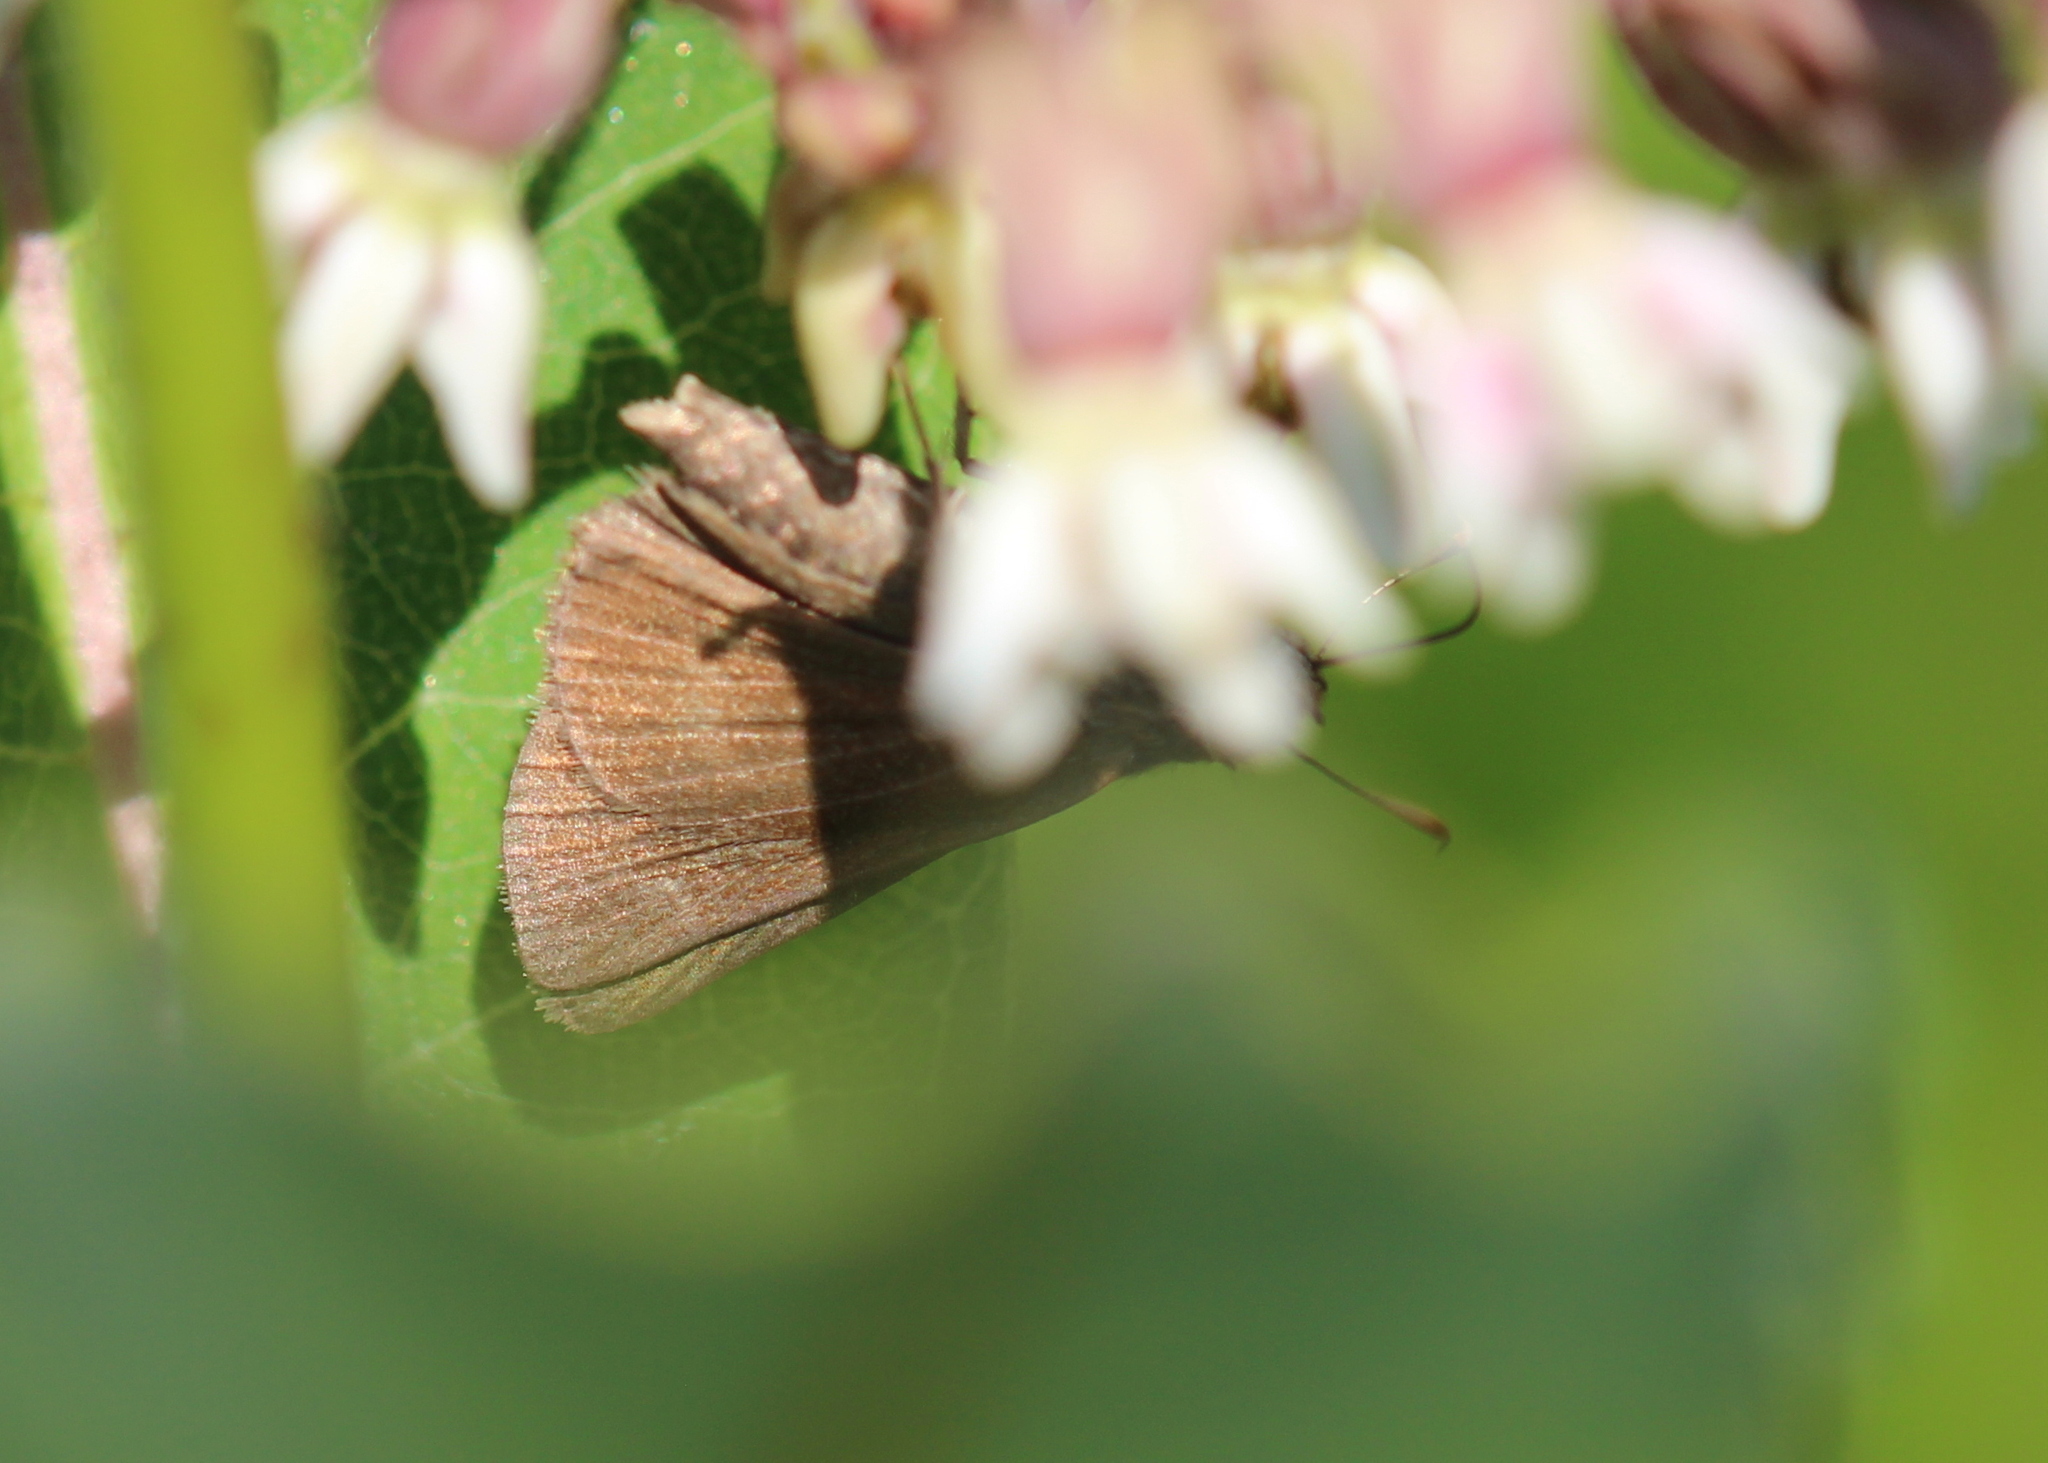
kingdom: Animalia
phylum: Arthropoda
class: Insecta
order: Lepidoptera
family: Hesperiidae
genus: Euphyes
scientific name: Euphyes vestris
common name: Dun skipper
